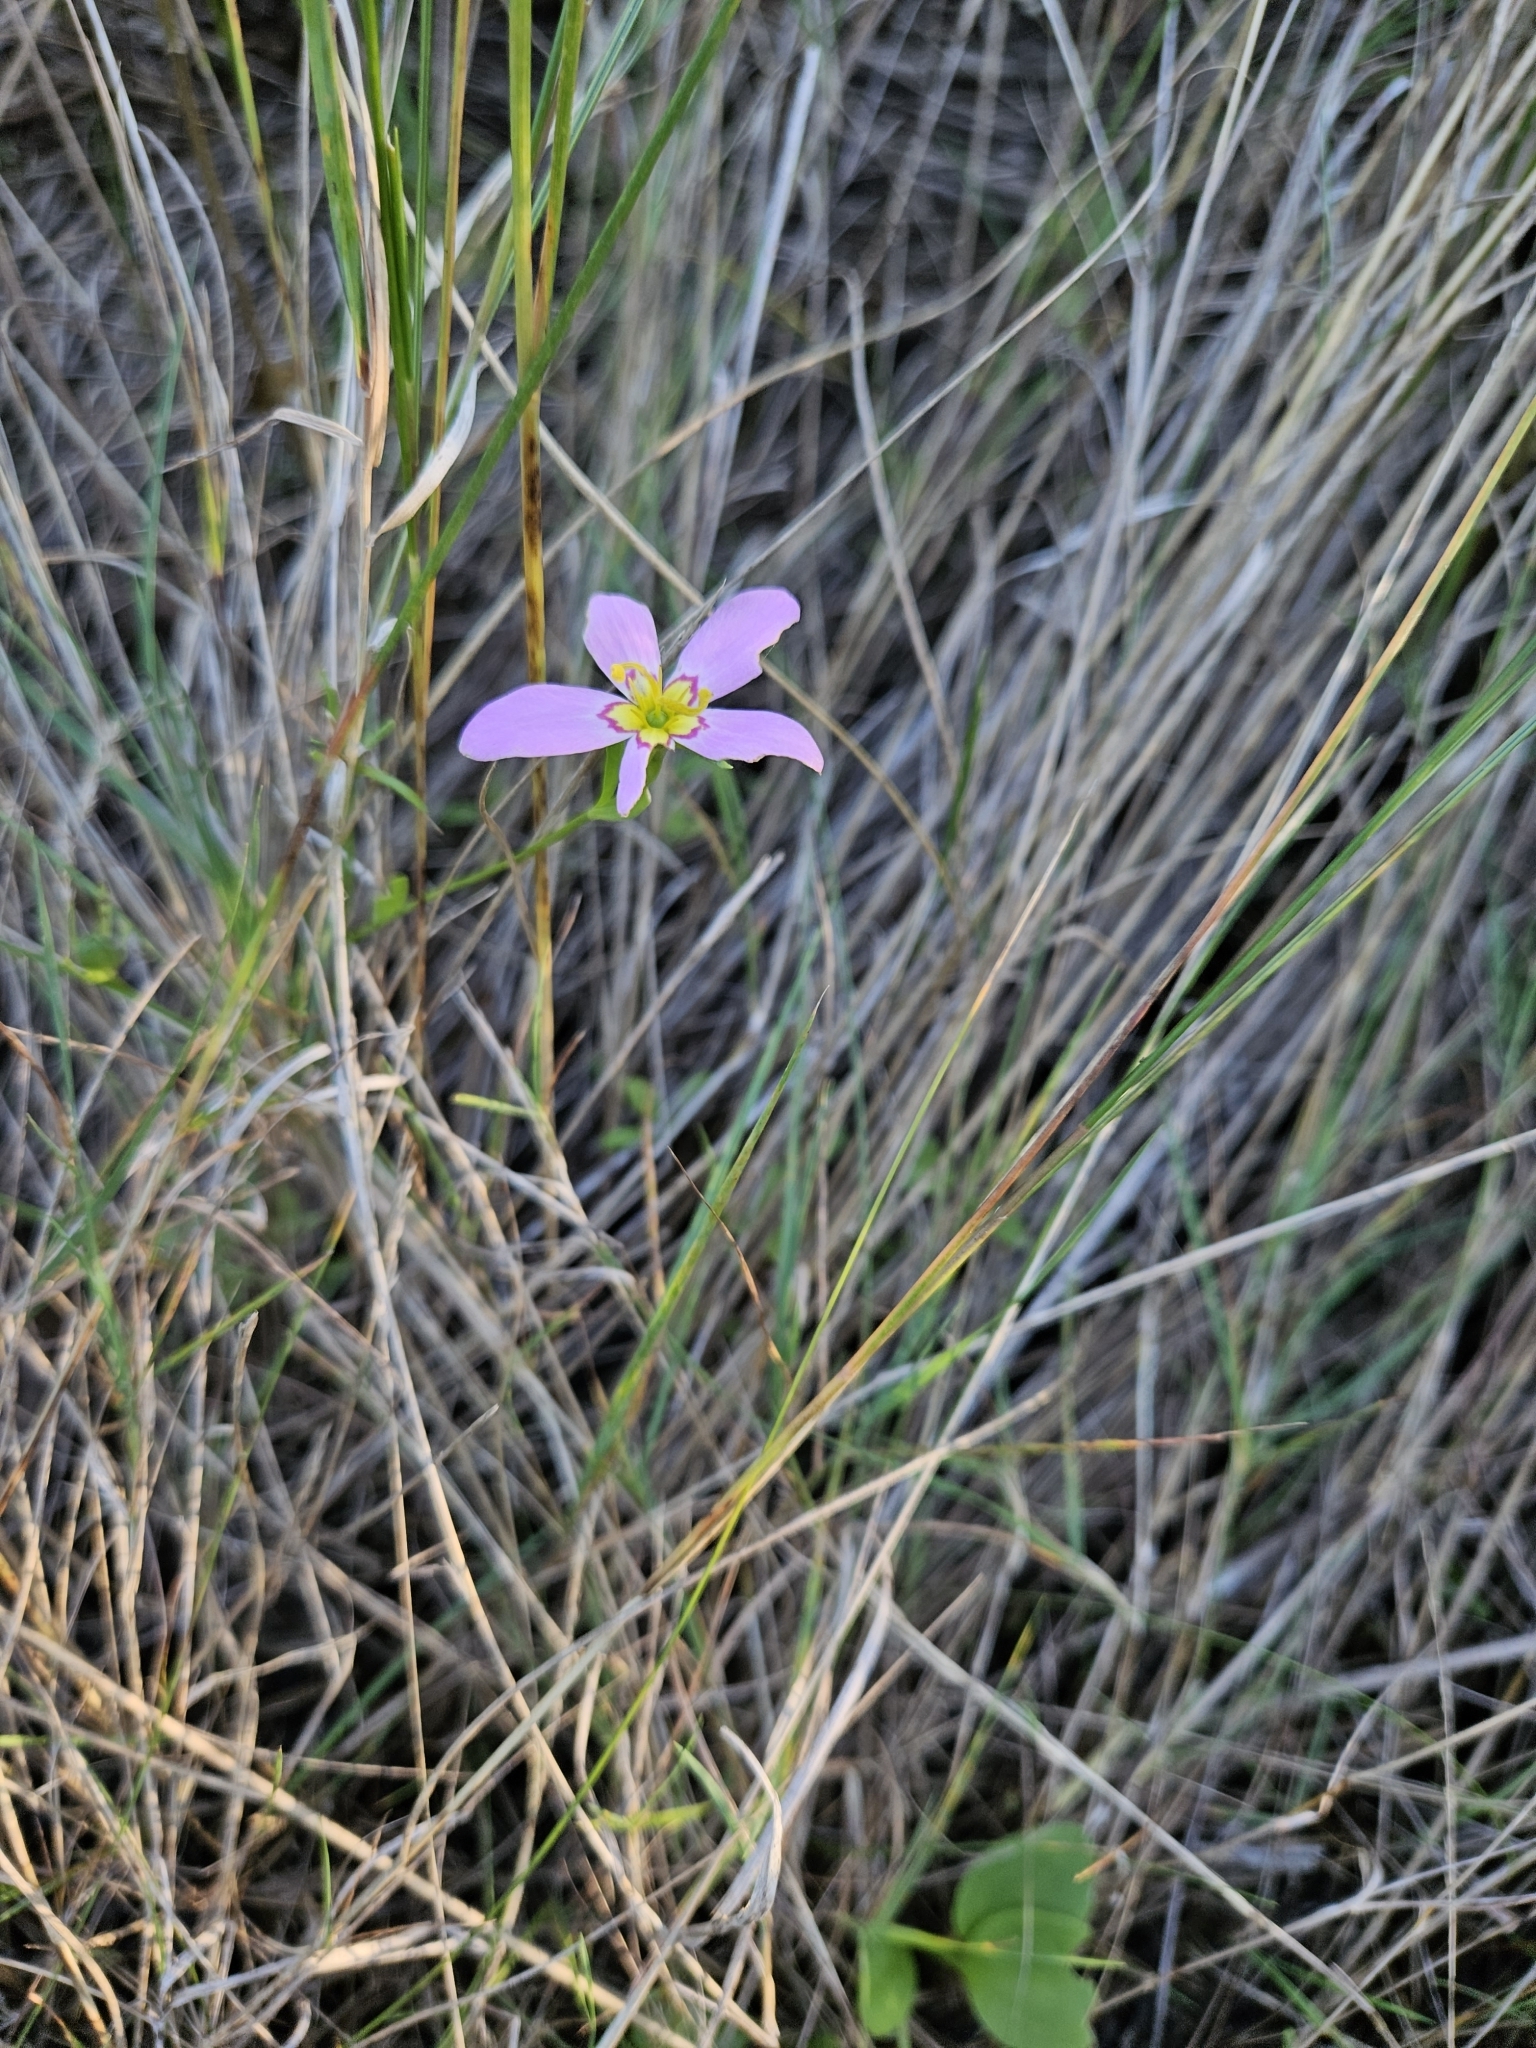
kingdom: Plantae
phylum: Tracheophyta
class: Magnoliopsida
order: Gentianales
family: Gentianaceae
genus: Sabatia
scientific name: Sabatia stellaris
